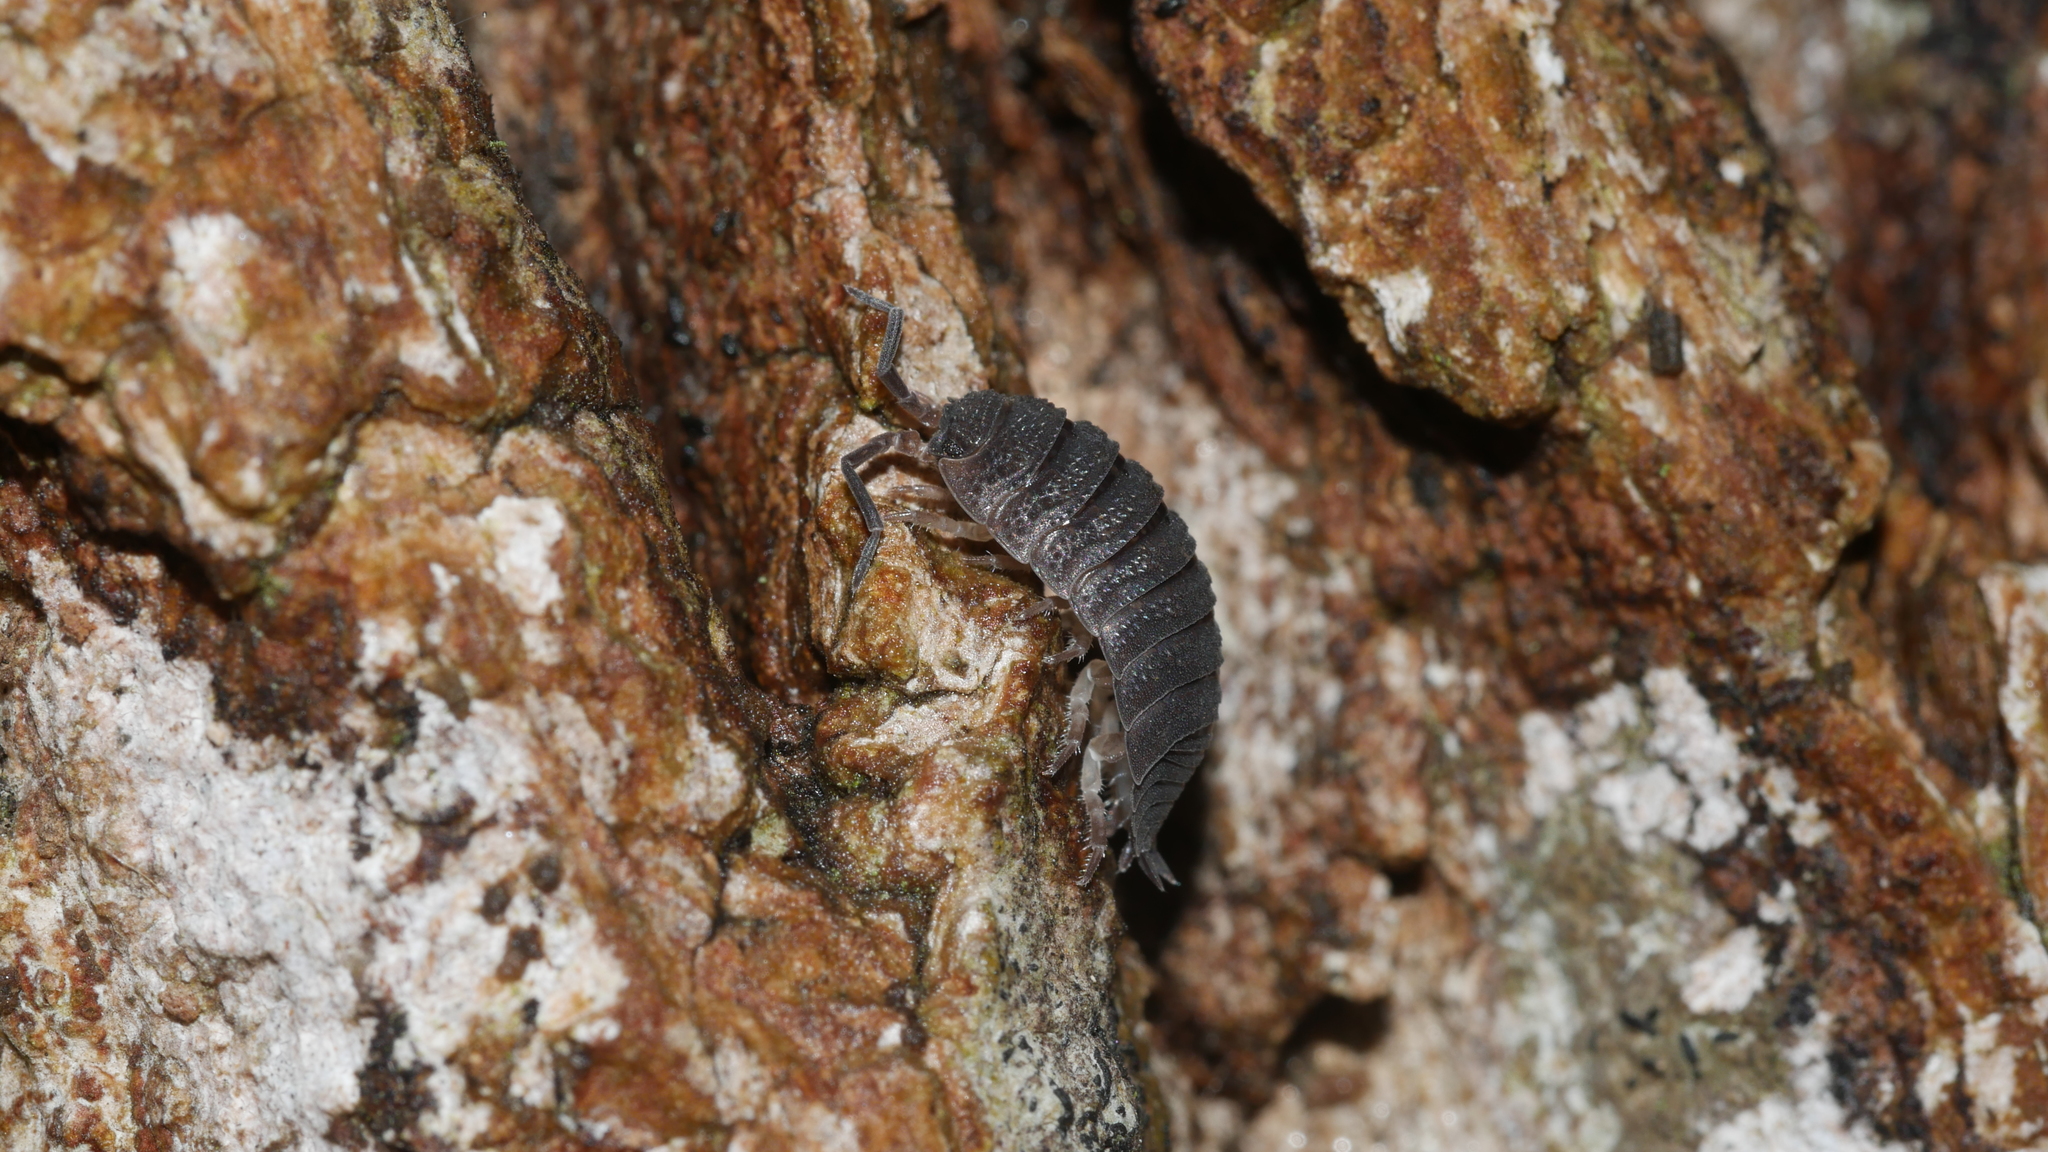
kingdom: Animalia
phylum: Arthropoda
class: Malacostraca
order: Isopoda
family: Porcellionidae
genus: Porcellio
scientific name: Porcellio scaber
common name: Common rough woodlouse
